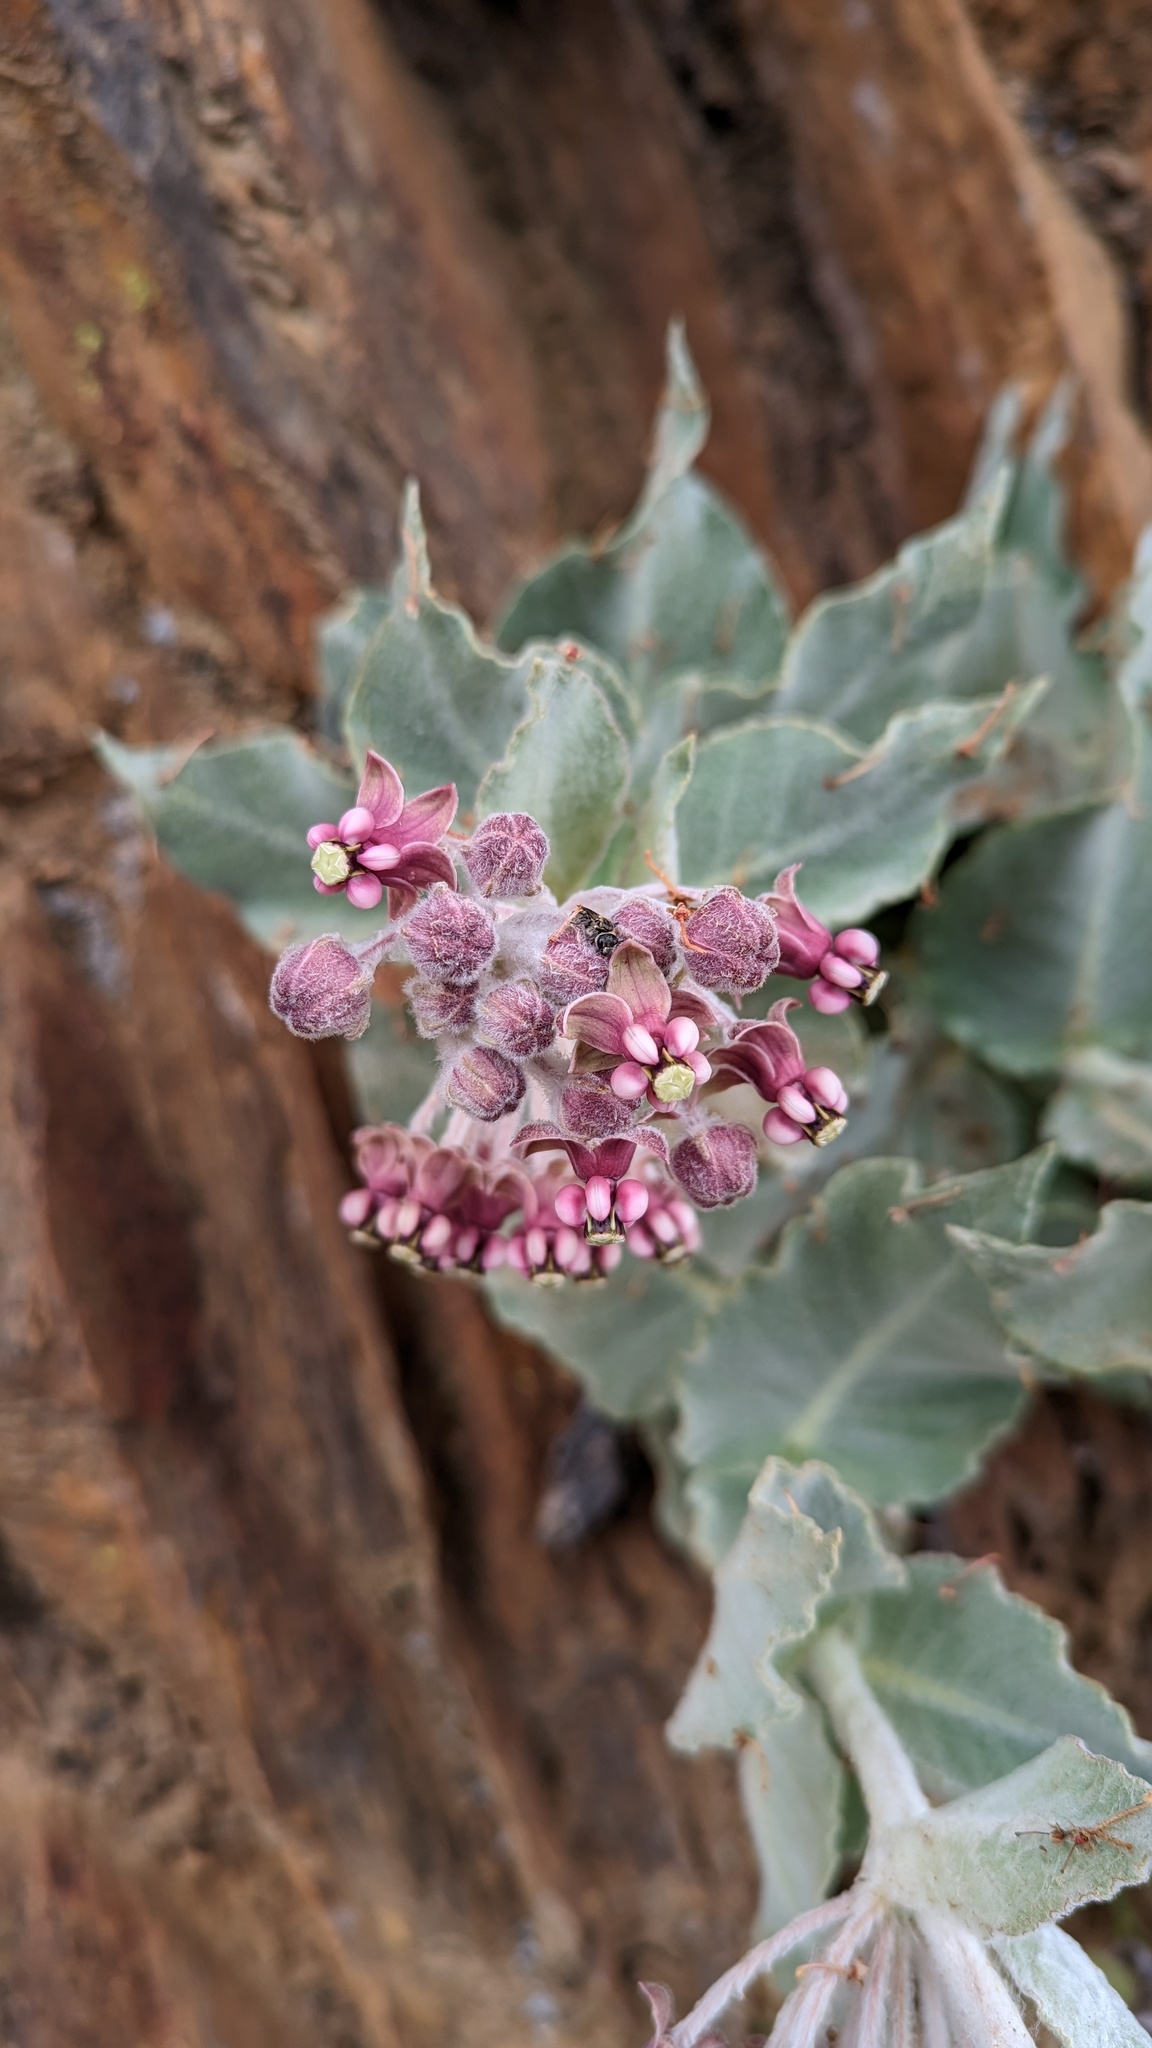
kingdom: Plantae
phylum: Tracheophyta
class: Magnoliopsida
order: Gentianales
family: Apocynaceae
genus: Asclepias
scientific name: Asclepias californica
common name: California milkweed
